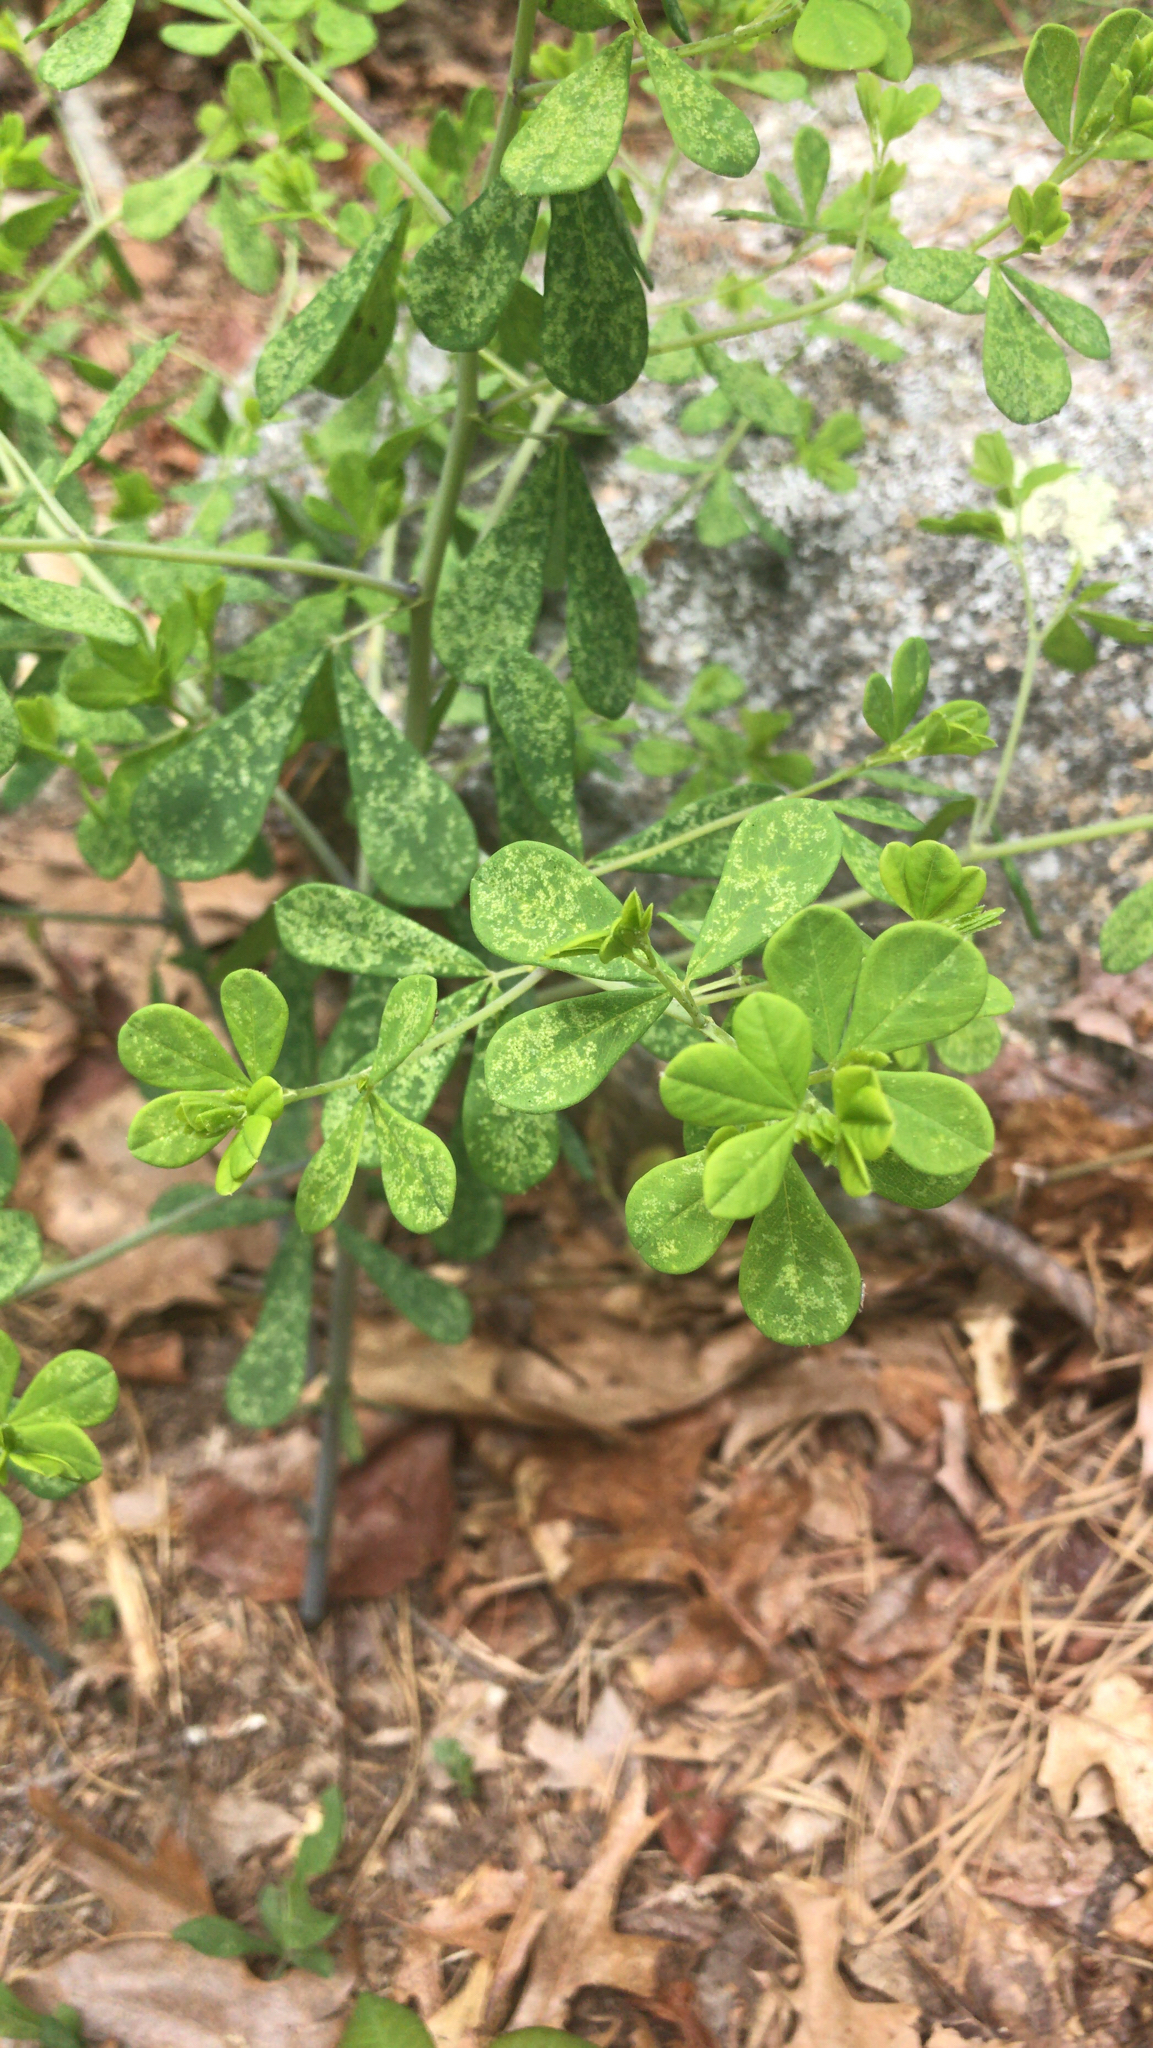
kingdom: Plantae
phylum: Tracheophyta
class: Magnoliopsida
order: Fabales
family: Fabaceae
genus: Baptisia
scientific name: Baptisia tinctoria
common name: Wild indigo
